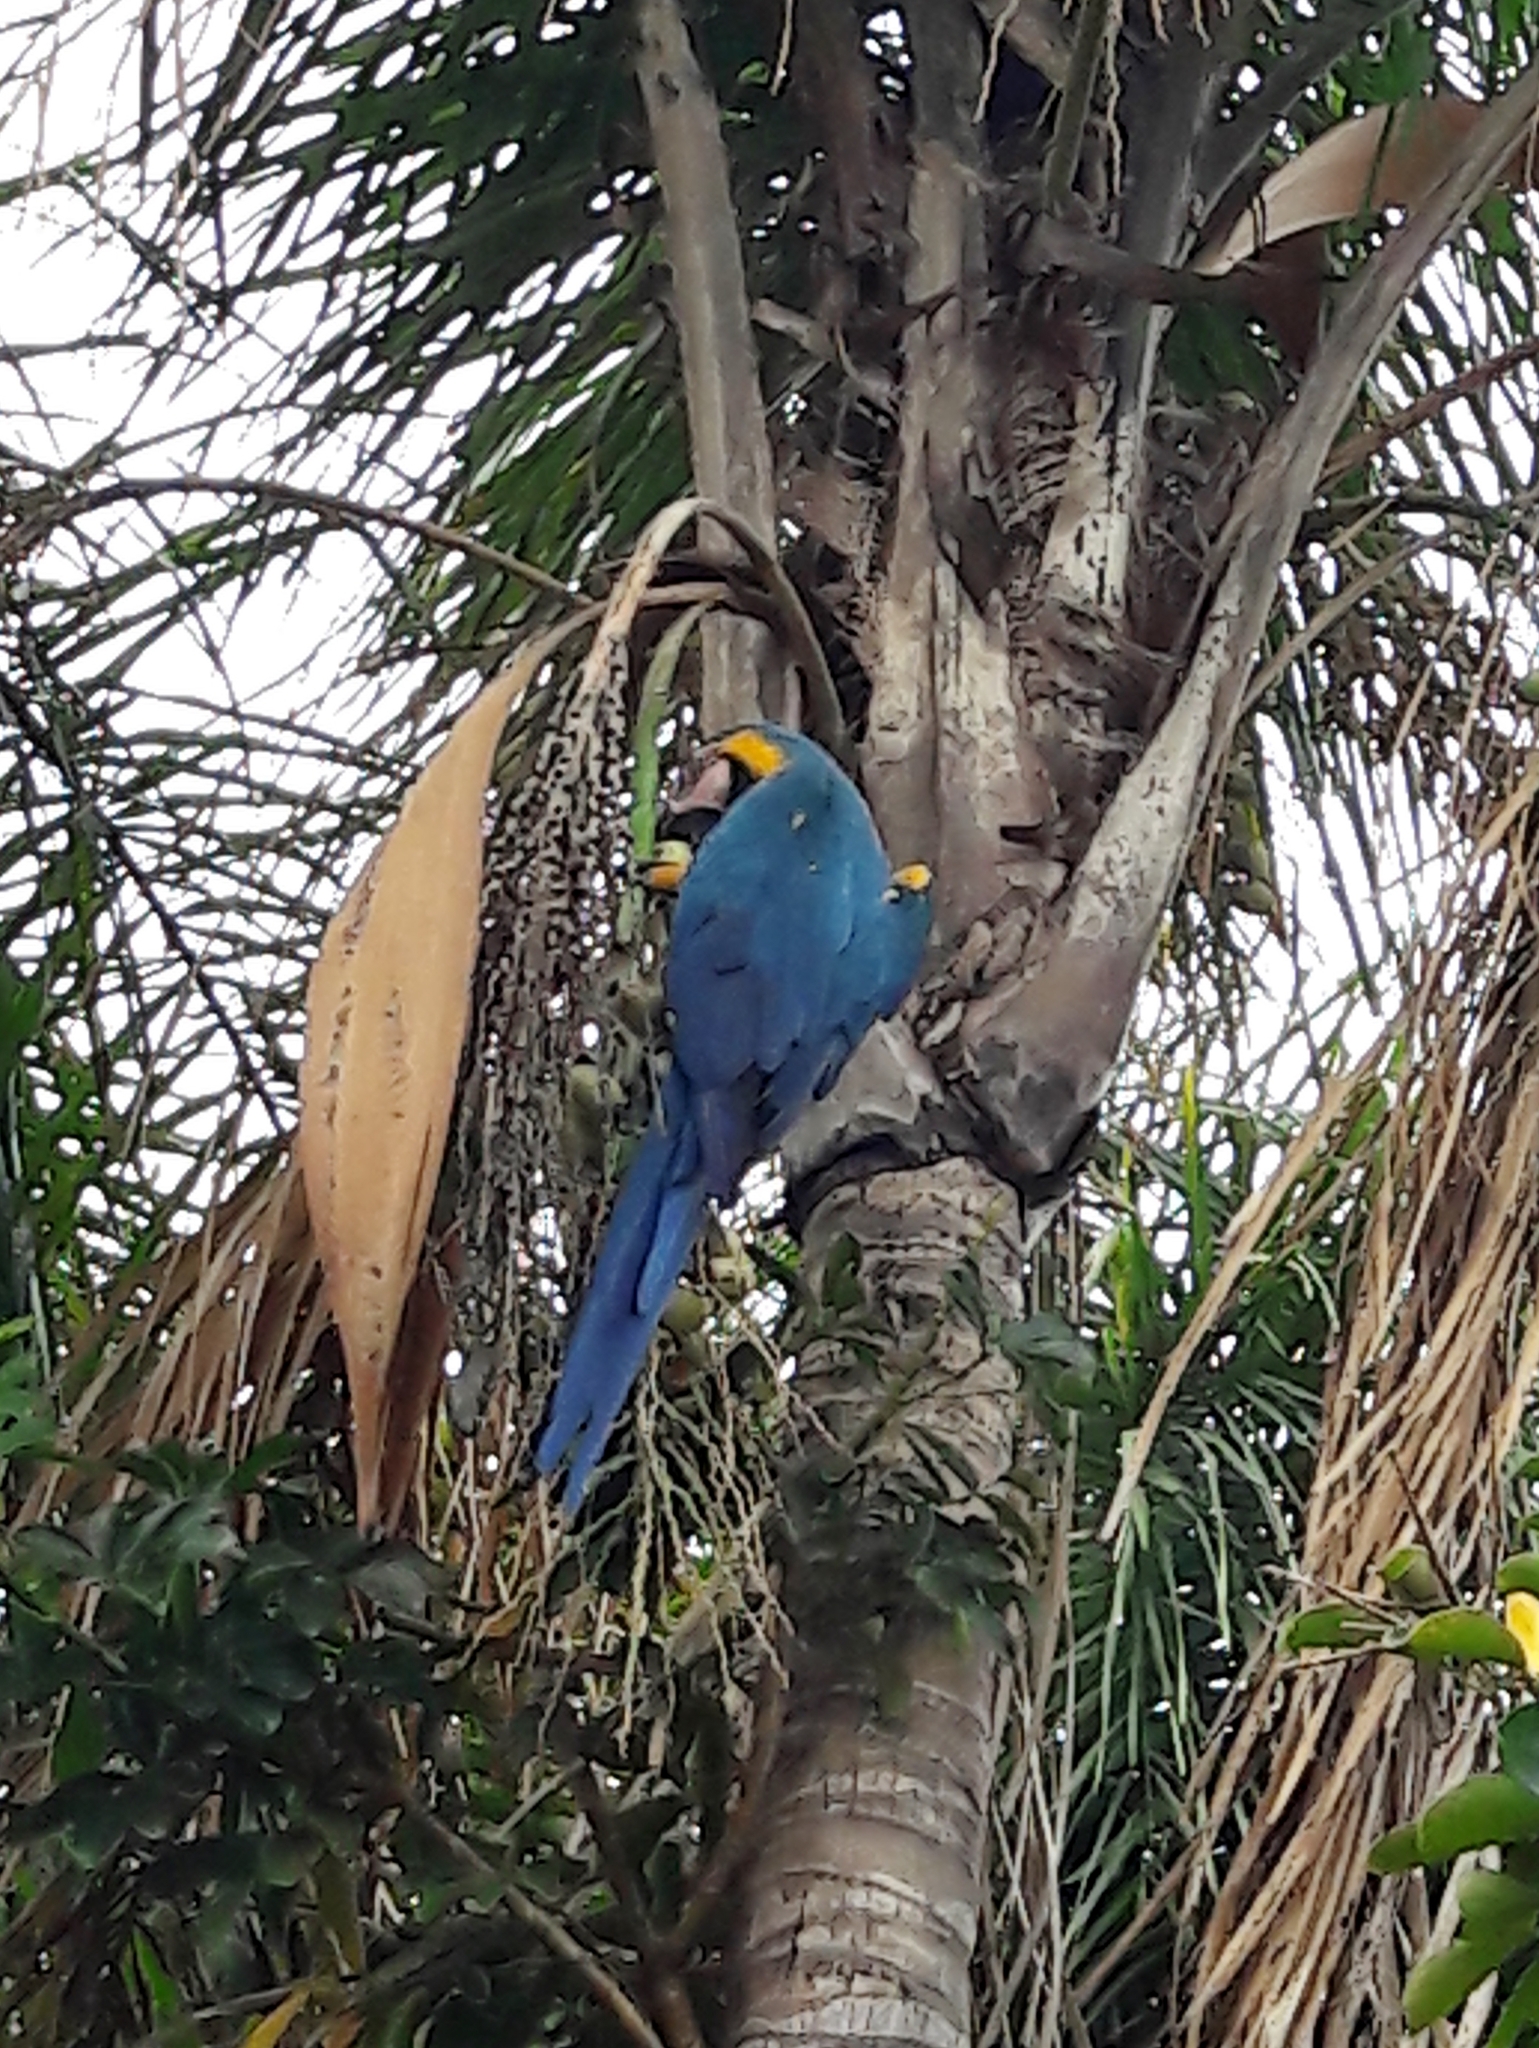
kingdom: Animalia
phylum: Chordata
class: Aves
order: Psittaciformes
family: Psittacidae
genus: Ara
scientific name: Ara ararauna
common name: Blue-and-yellow macaw
